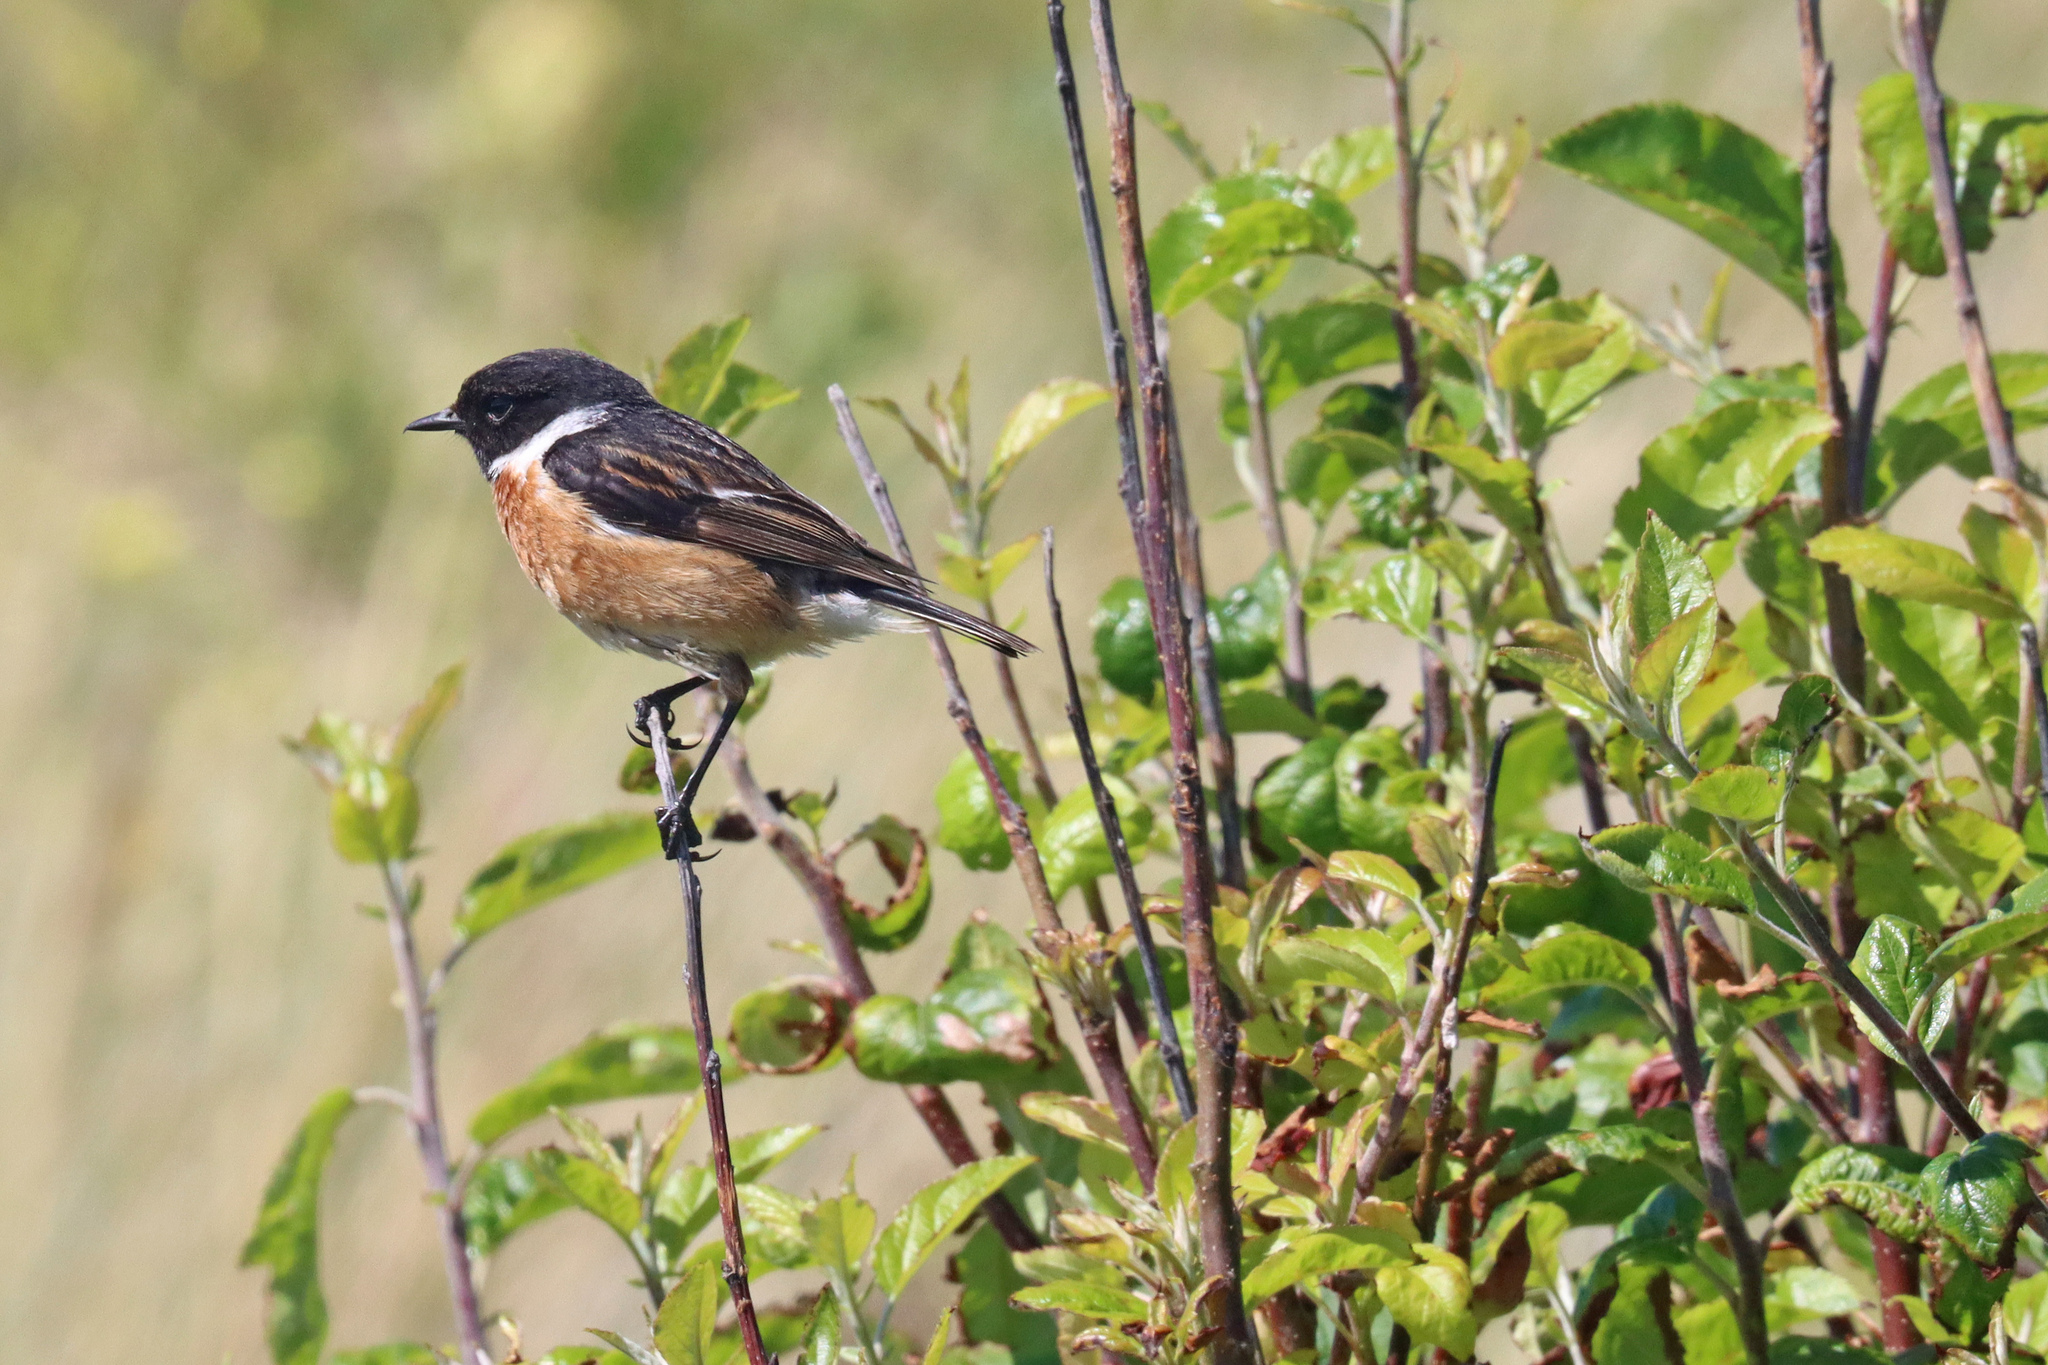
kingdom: Animalia
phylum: Chordata
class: Aves
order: Passeriformes
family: Muscicapidae
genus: Saxicola
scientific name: Saxicola rubicola
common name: European stonechat
